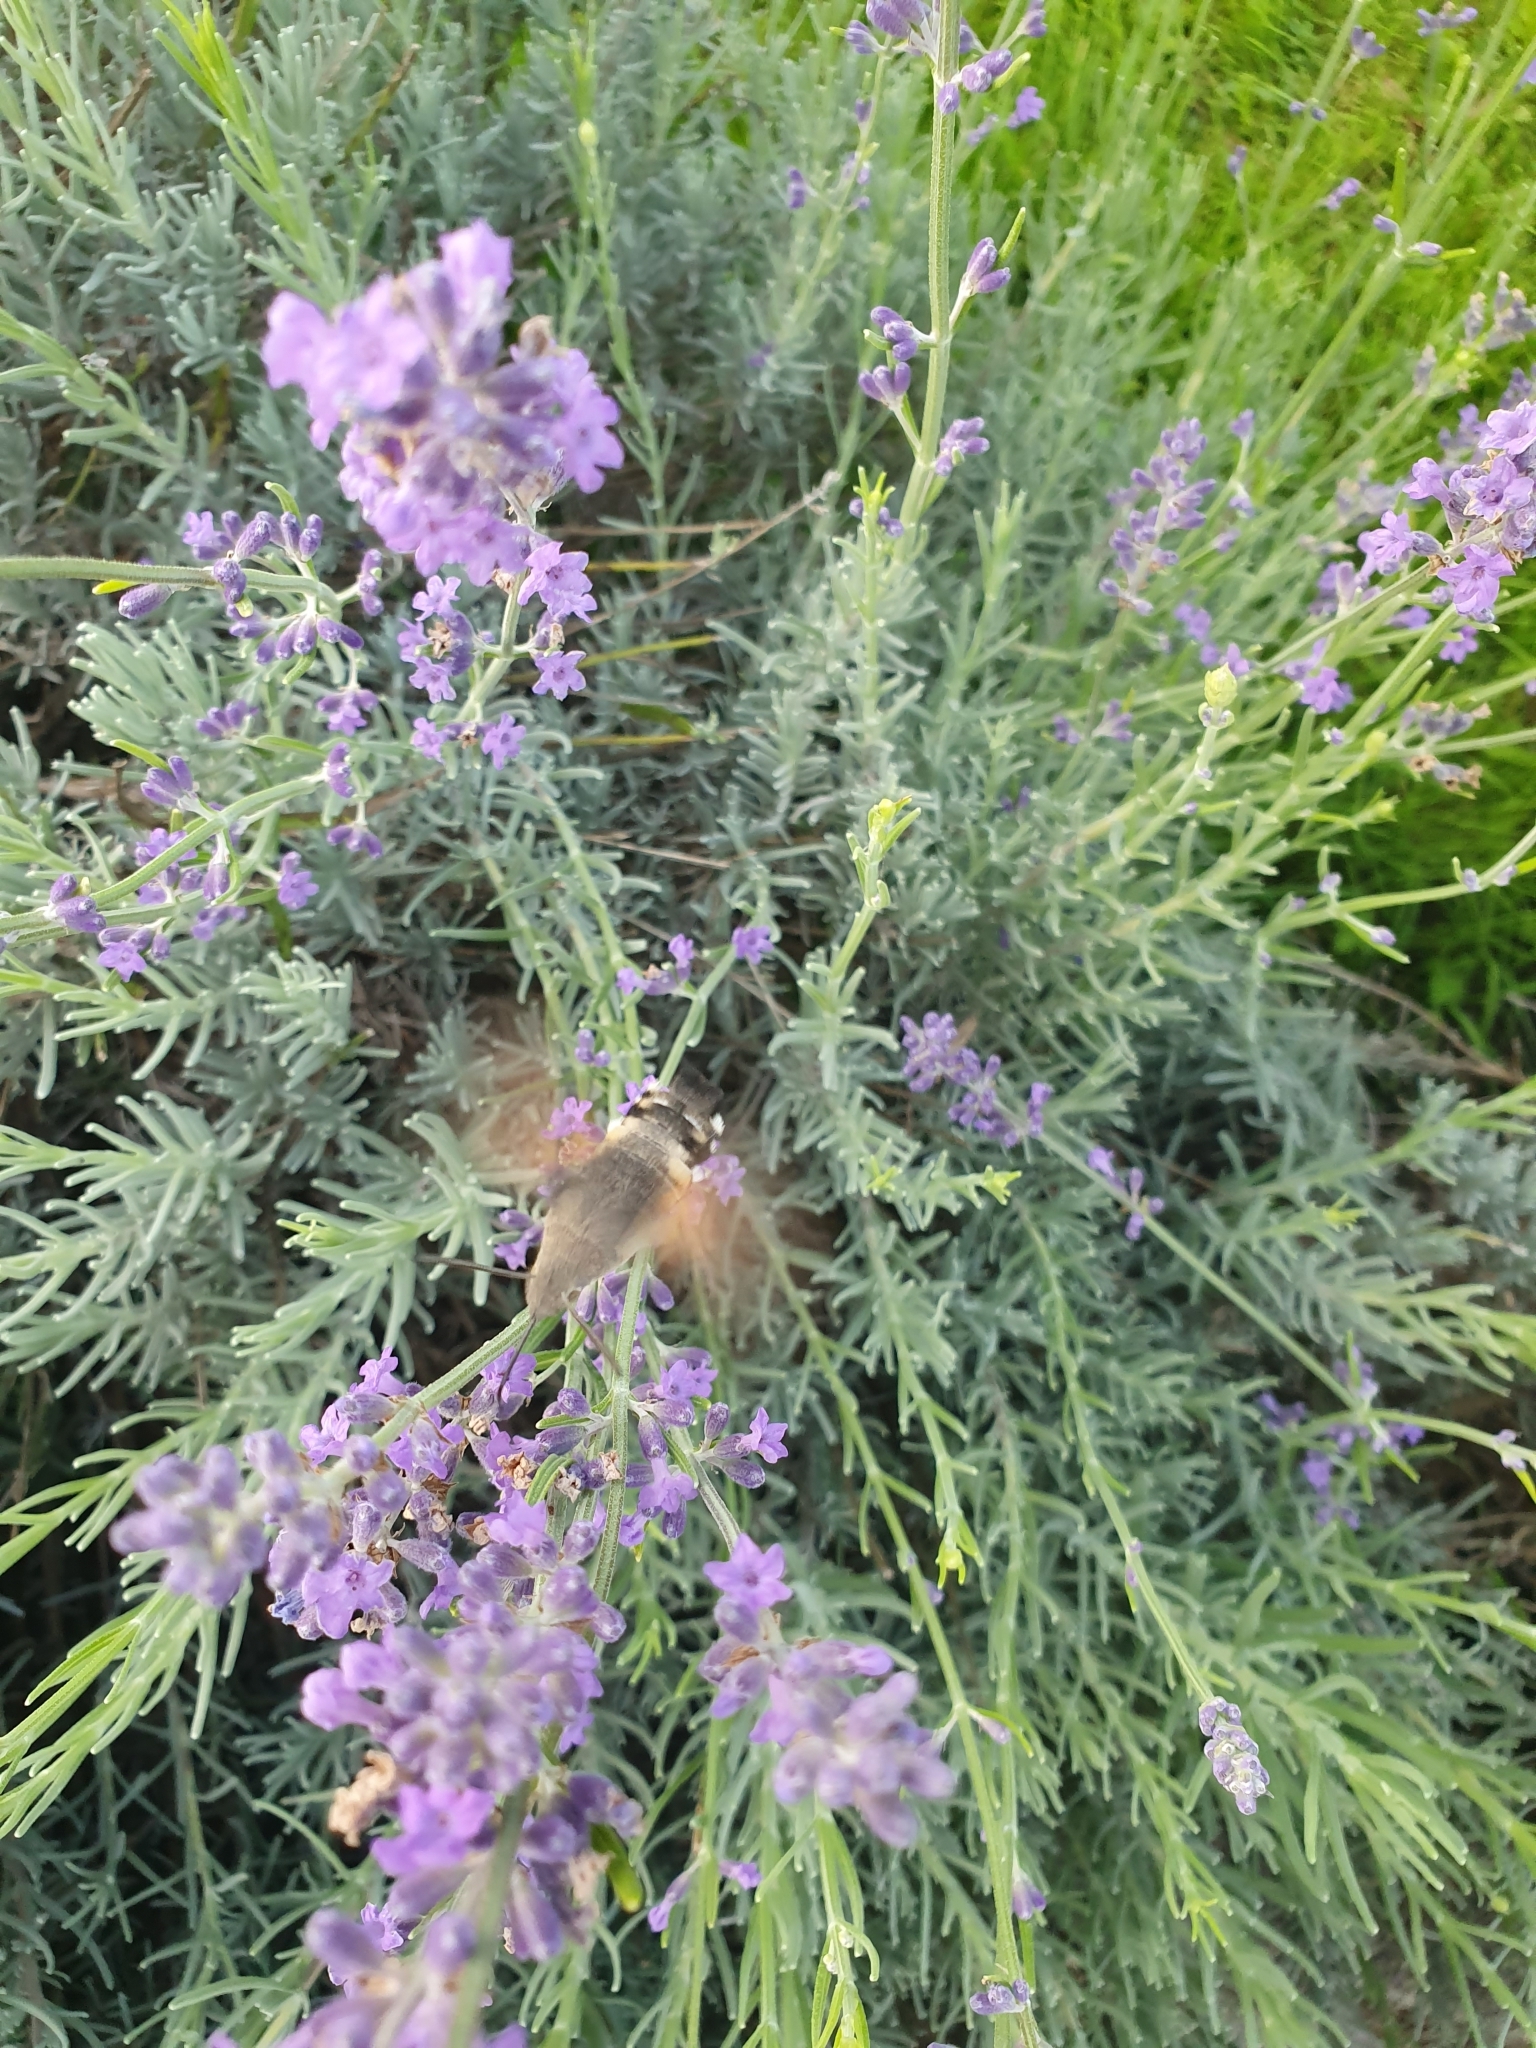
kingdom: Animalia
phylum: Arthropoda
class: Insecta
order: Lepidoptera
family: Sphingidae
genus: Macroglossum
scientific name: Macroglossum stellatarum
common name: Humming-bird hawk-moth
